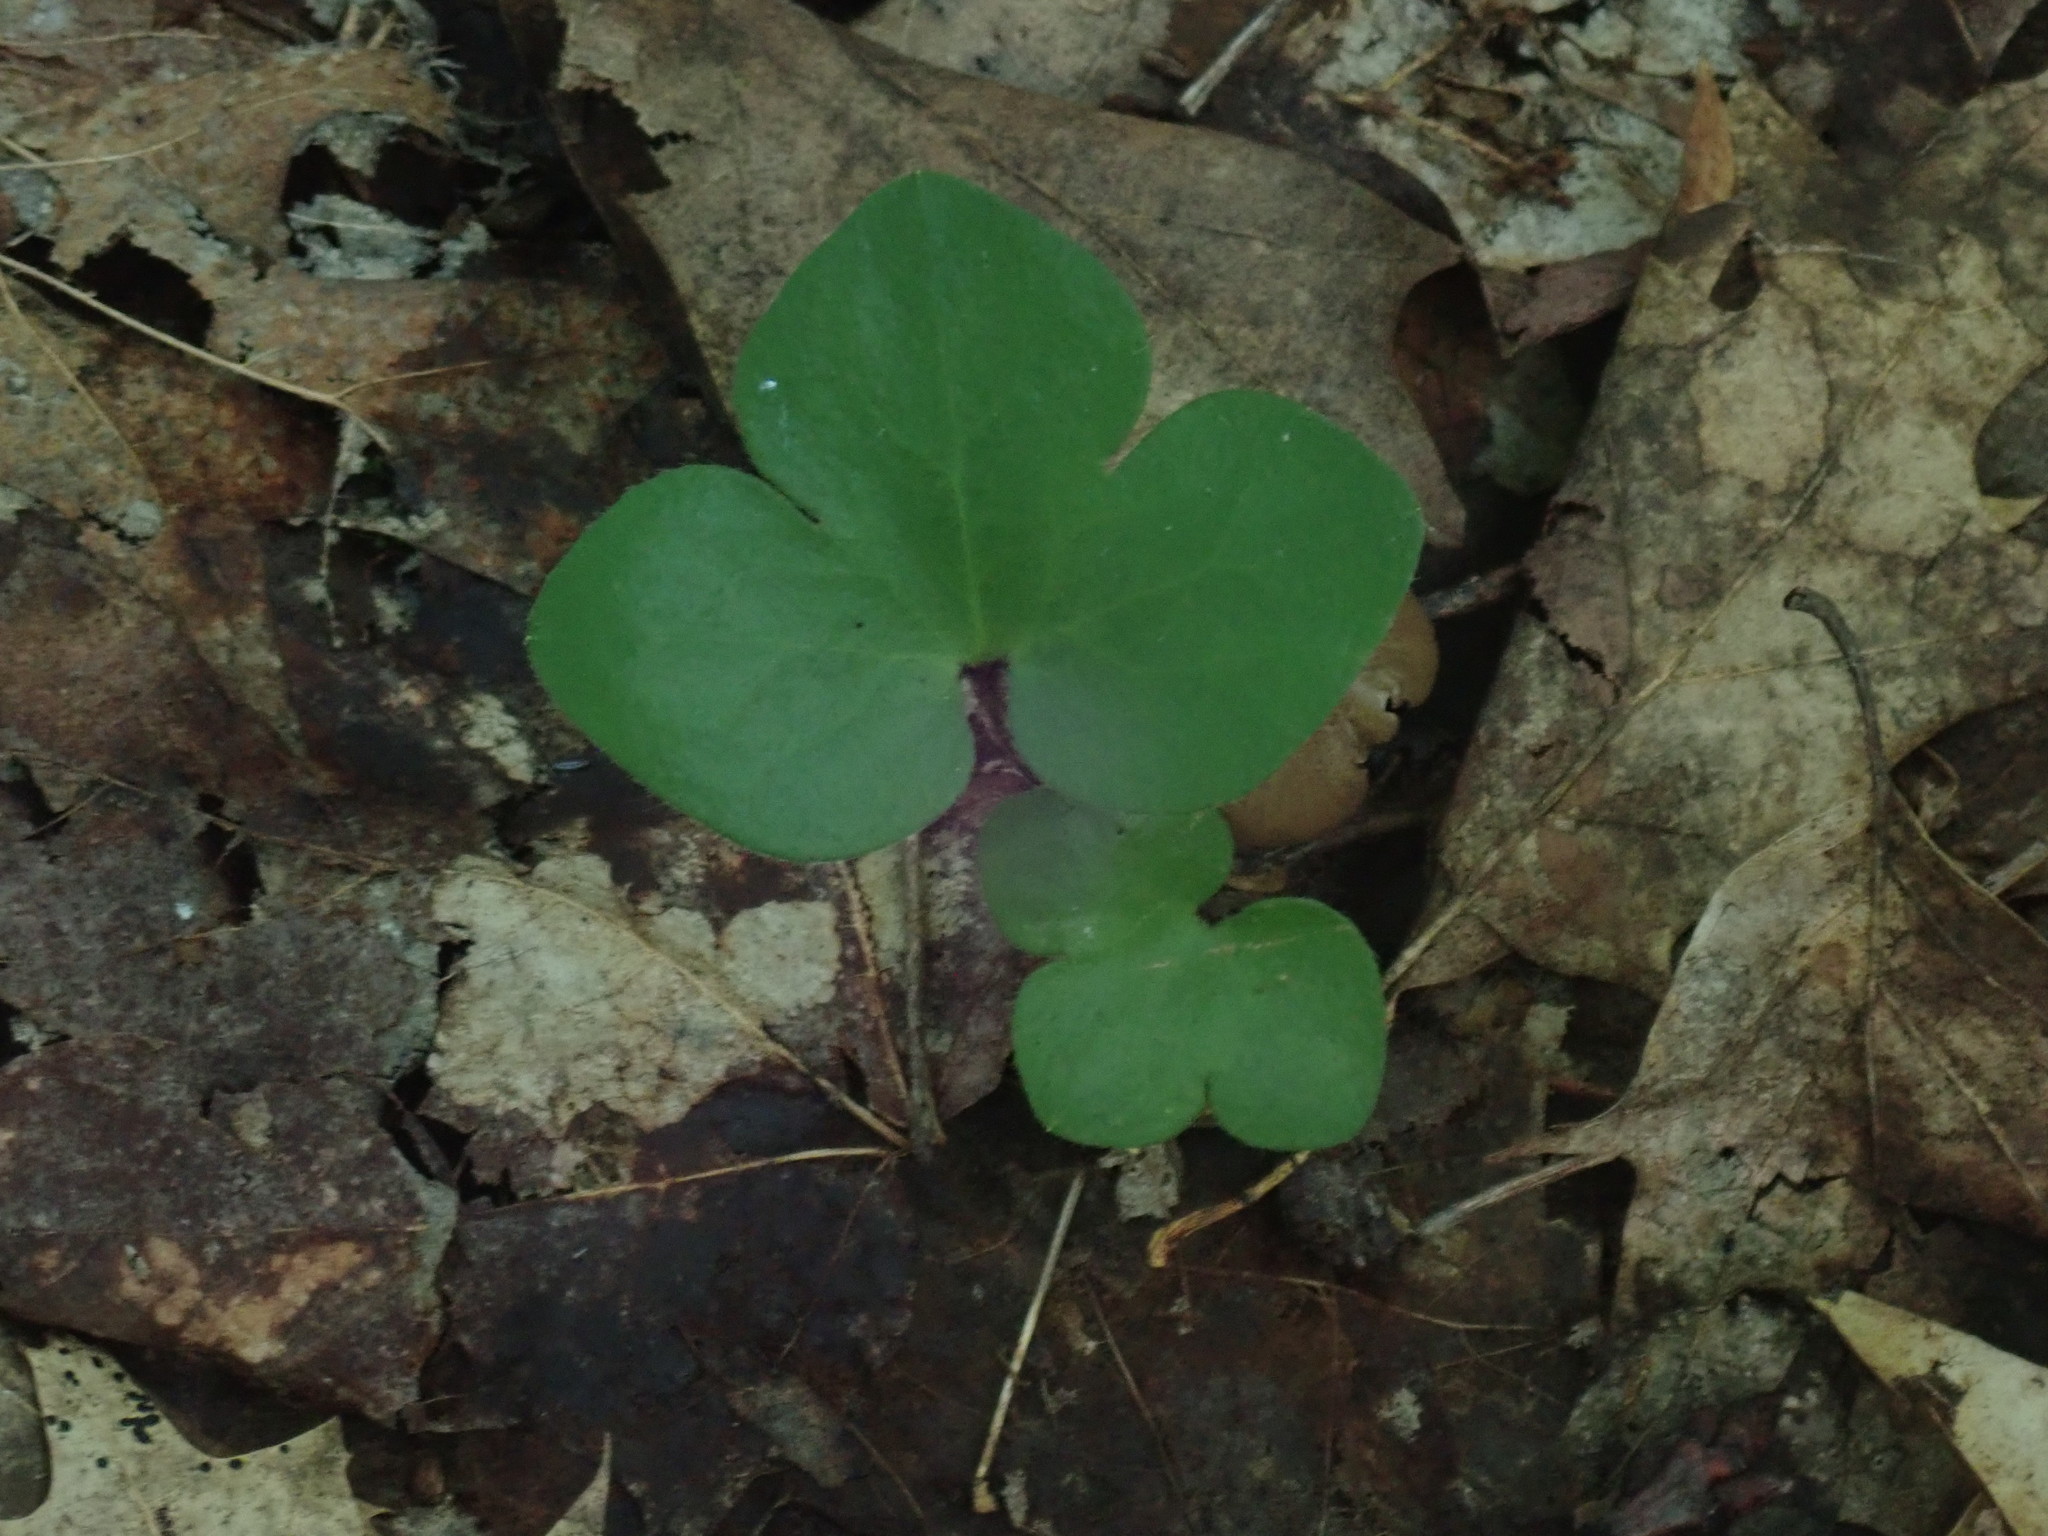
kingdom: Plantae
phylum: Tracheophyta
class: Magnoliopsida
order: Ranunculales
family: Ranunculaceae
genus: Hepatica
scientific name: Hepatica americana
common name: American hepatica
